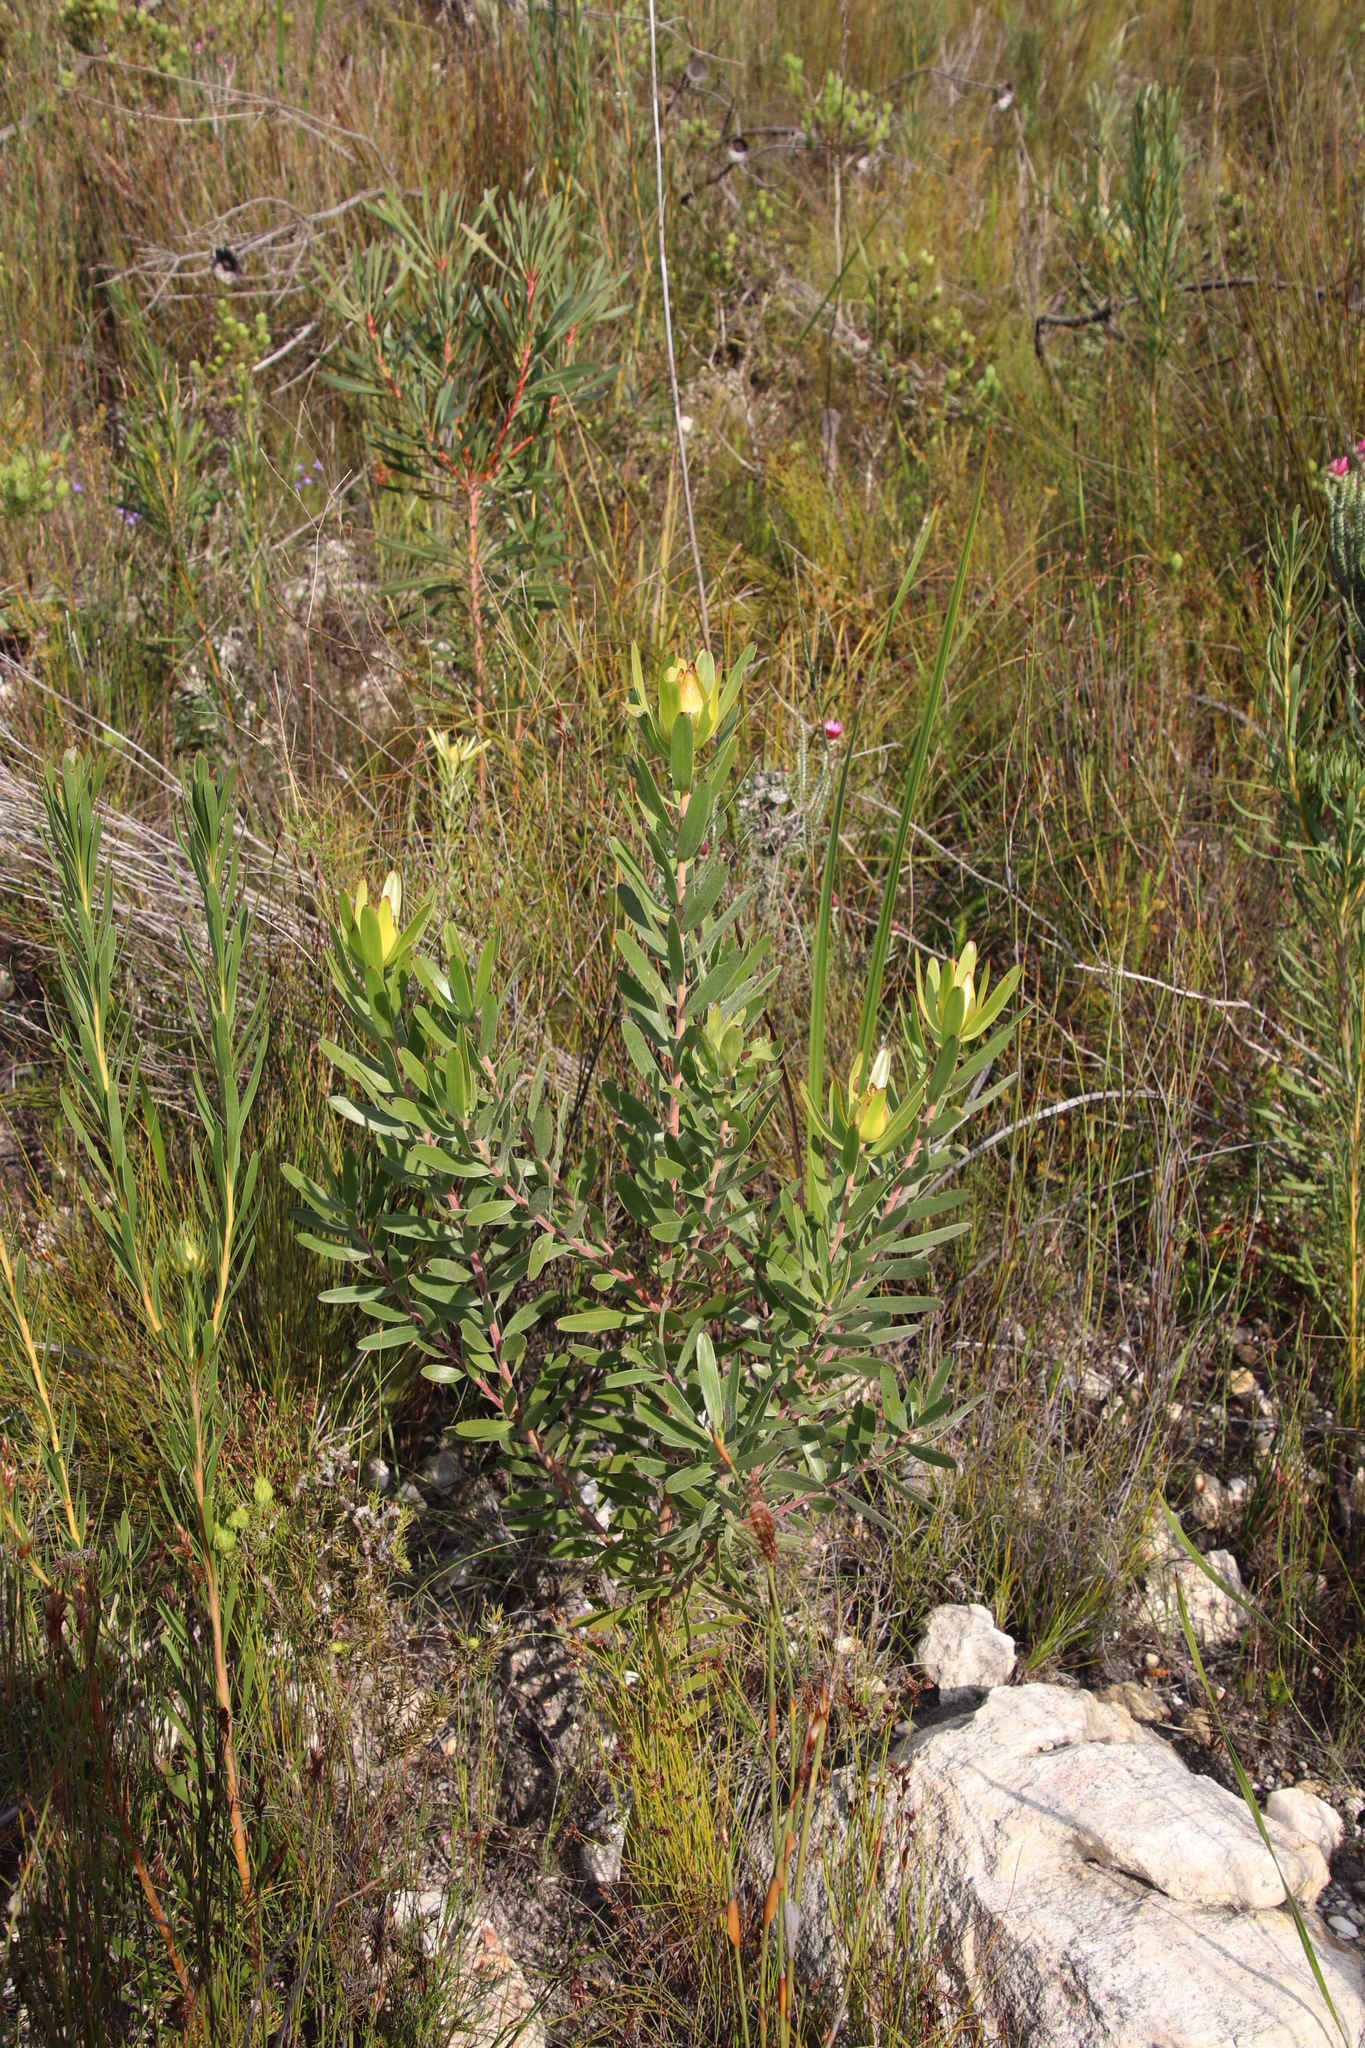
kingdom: Plantae
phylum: Tracheophyta
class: Magnoliopsida
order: Proteales
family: Proteaceae
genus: Leucadendron
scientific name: Leucadendron laureolum
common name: Golden sunshinebush
